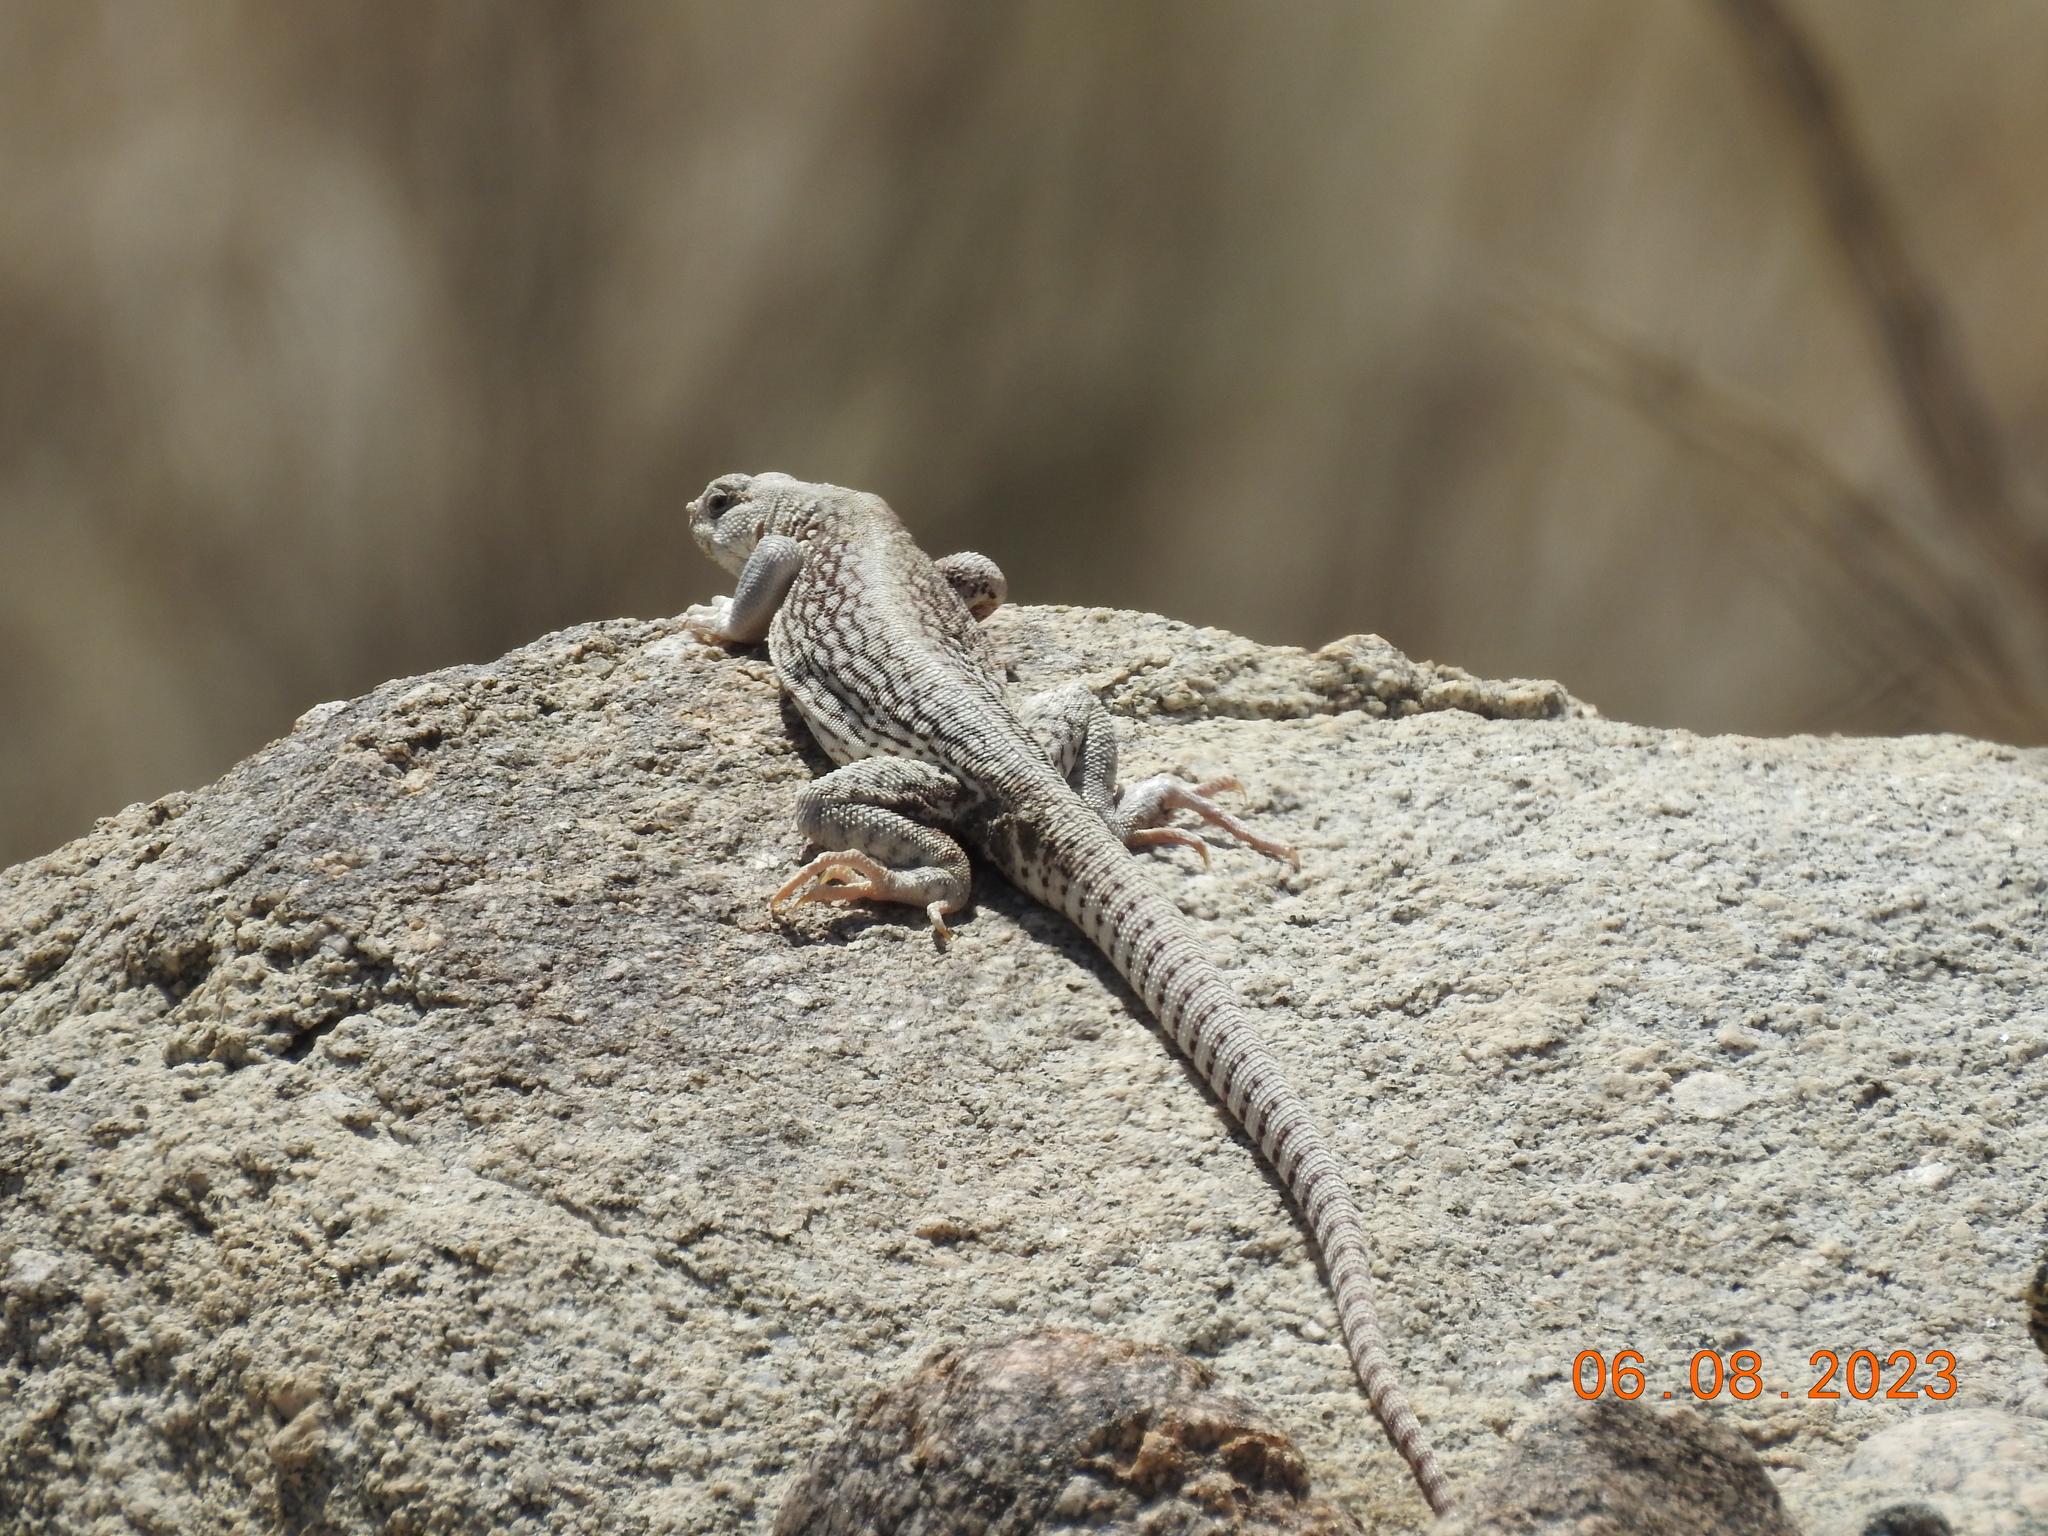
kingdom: Animalia
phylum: Chordata
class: Squamata
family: Iguanidae
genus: Dipsosaurus
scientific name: Dipsosaurus dorsalis
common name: Desert iguana
